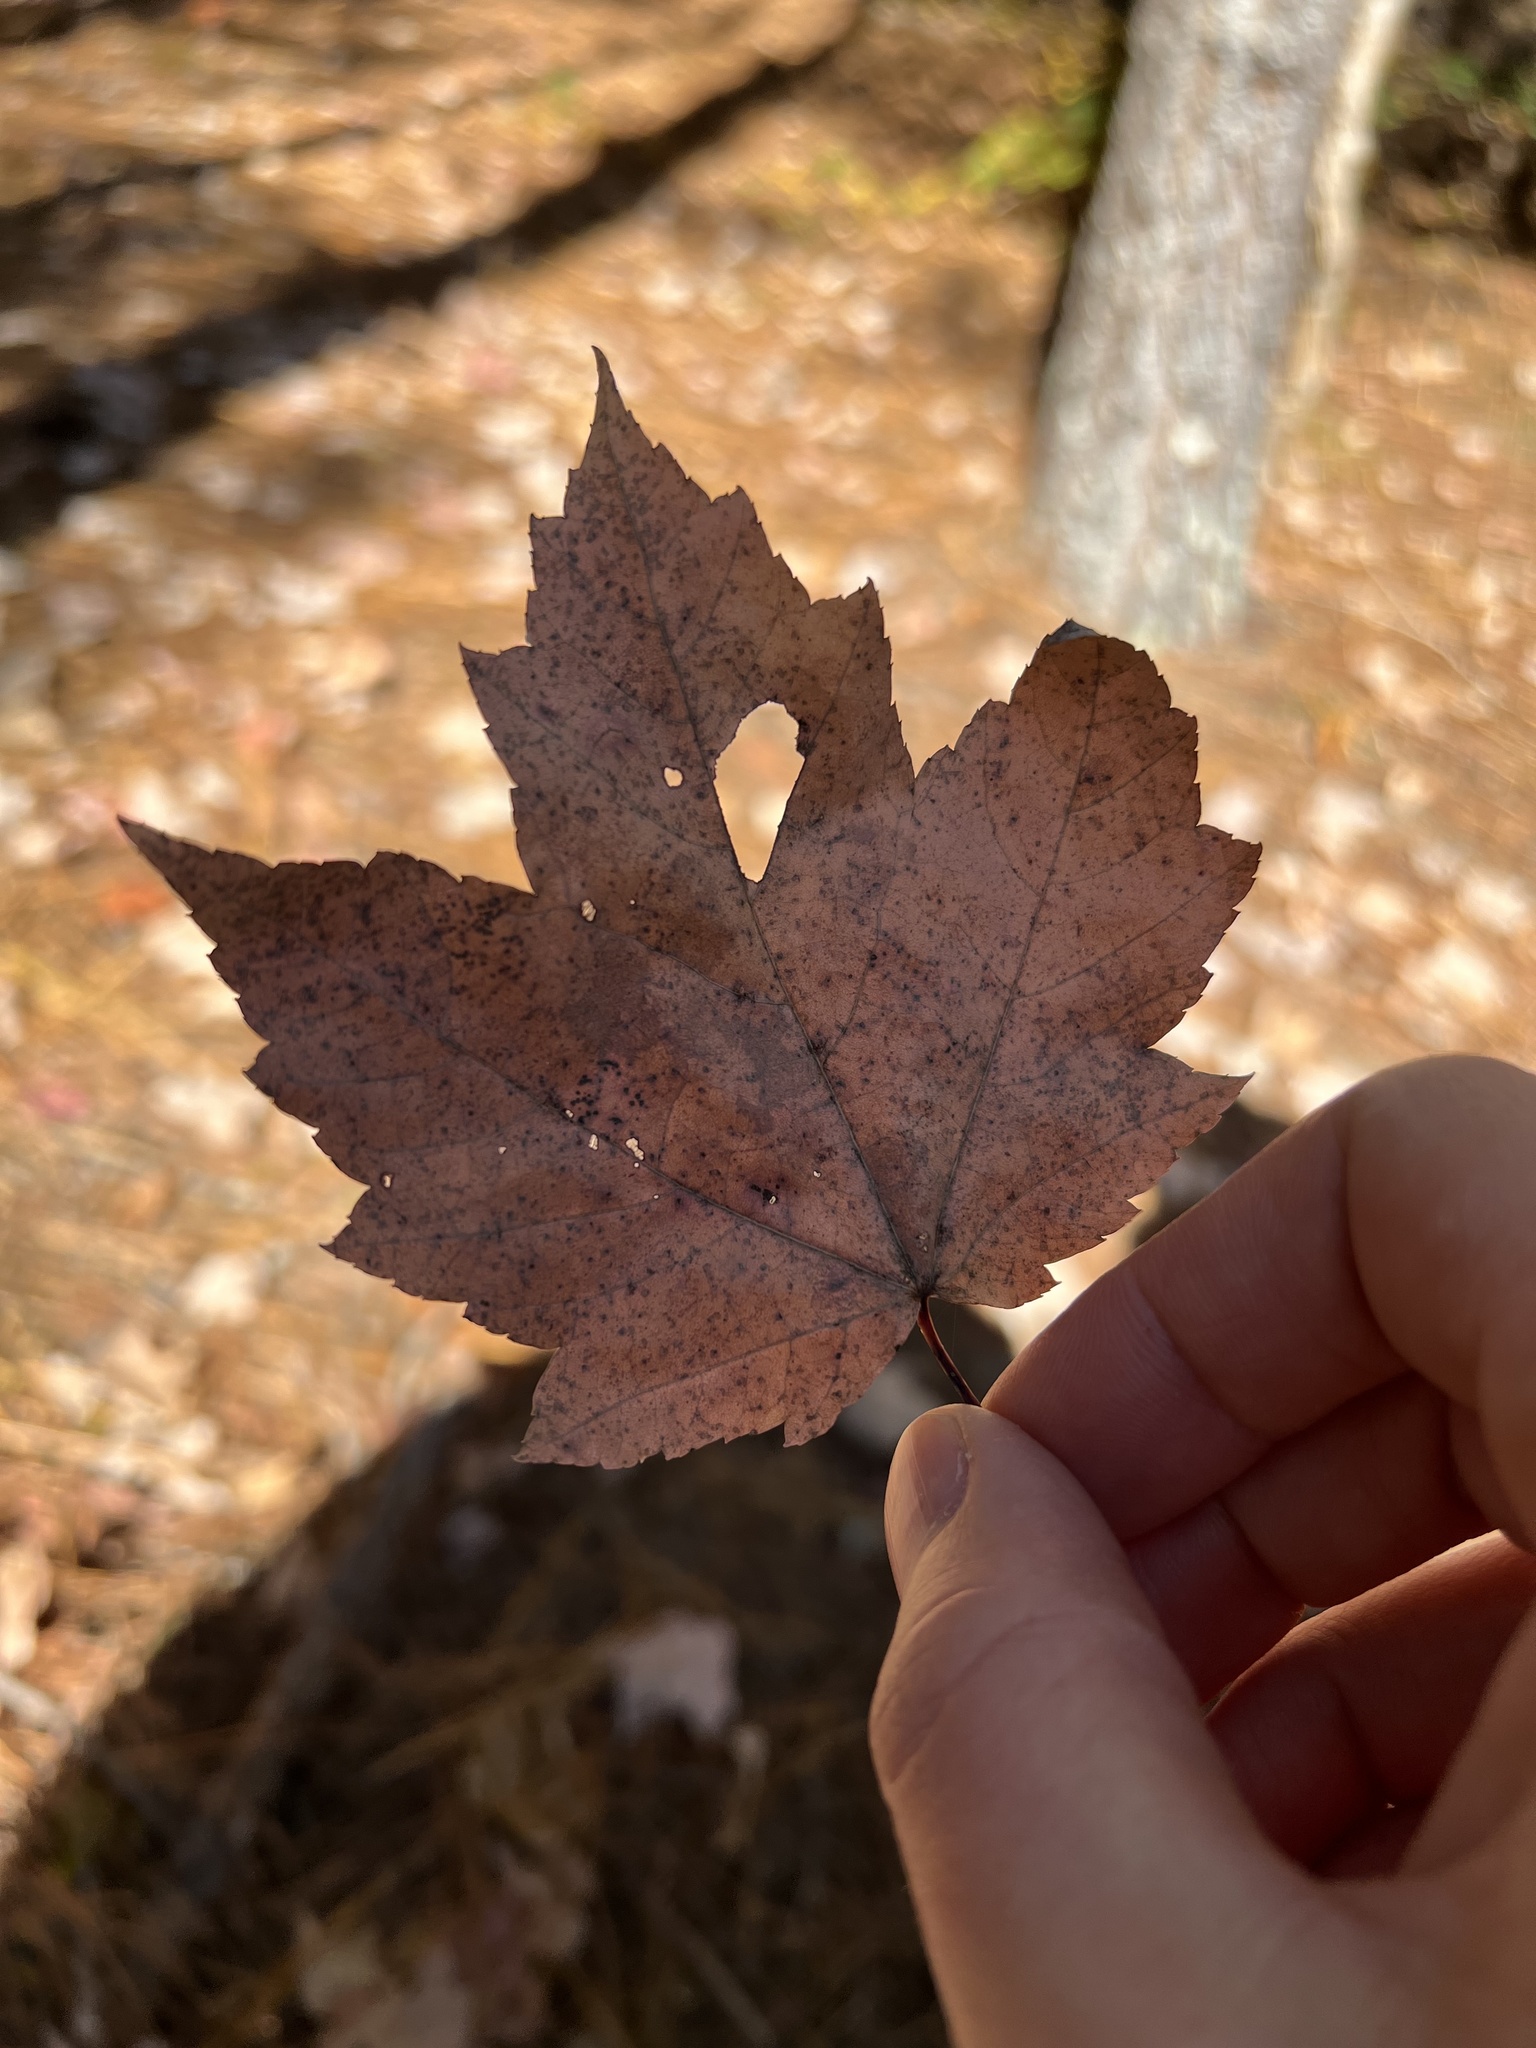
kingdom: Plantae
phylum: Tracheophyta
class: Magnoliopsida
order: Sapindales
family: Sapindaceae
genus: Acer
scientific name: Acer rubrum
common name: Red maple
